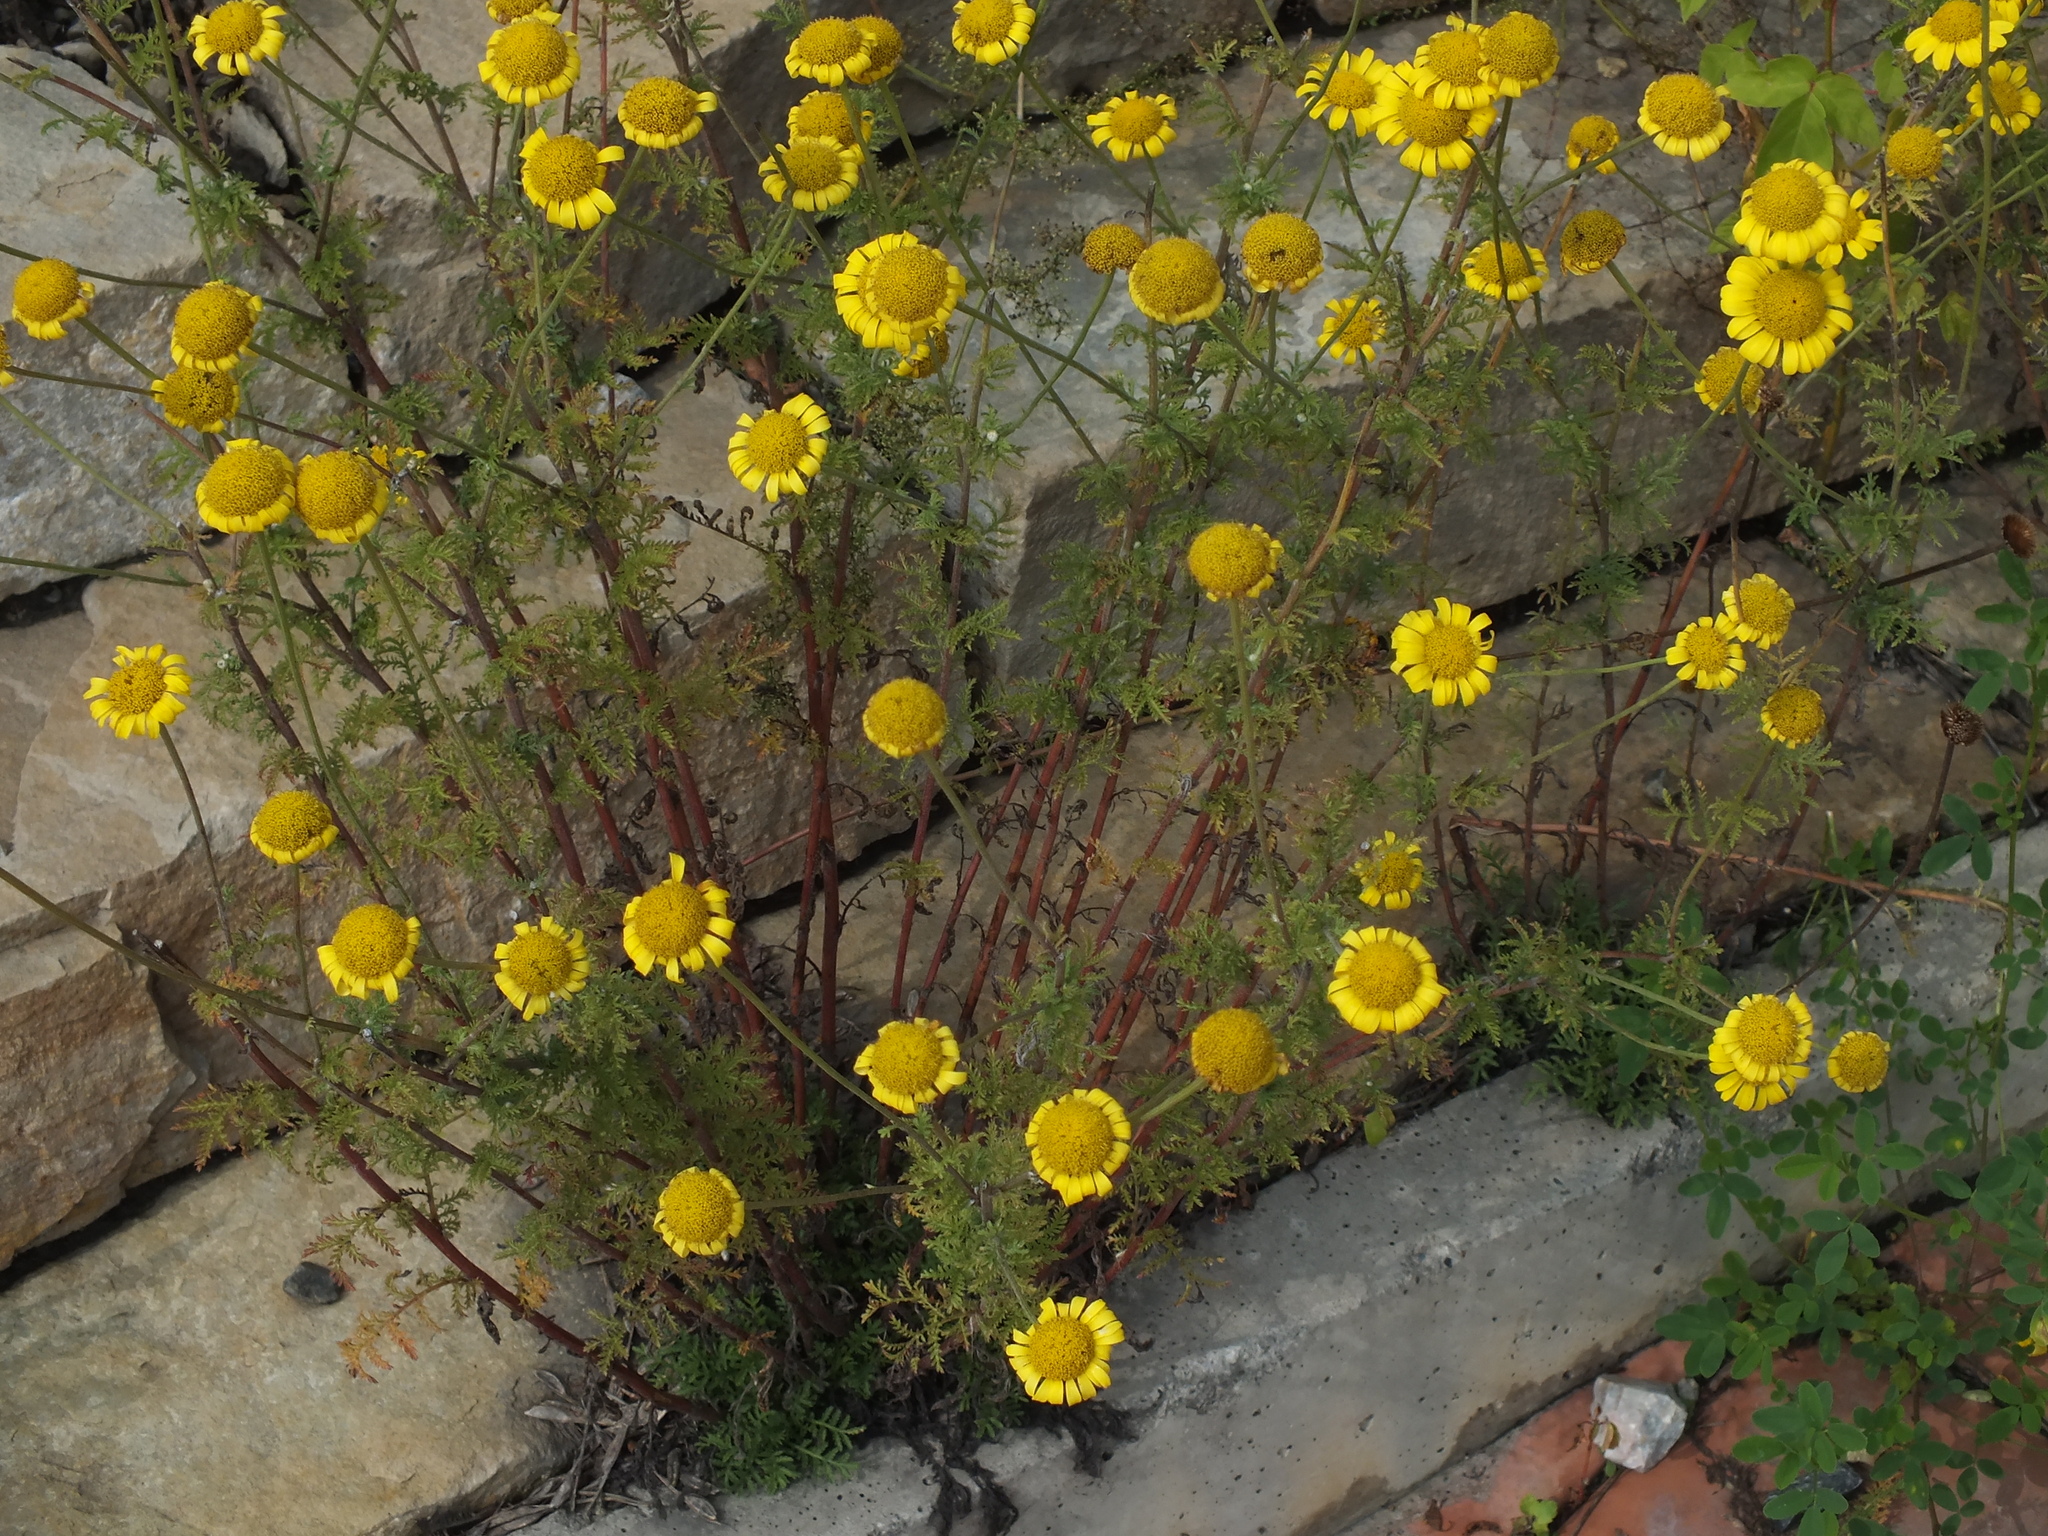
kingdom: Plantae
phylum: Tracheophyta
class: Magnoliopsida
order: Asterales
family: Asteraceae
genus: Cota
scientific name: Cota tinctoria
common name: Golden chamomile
